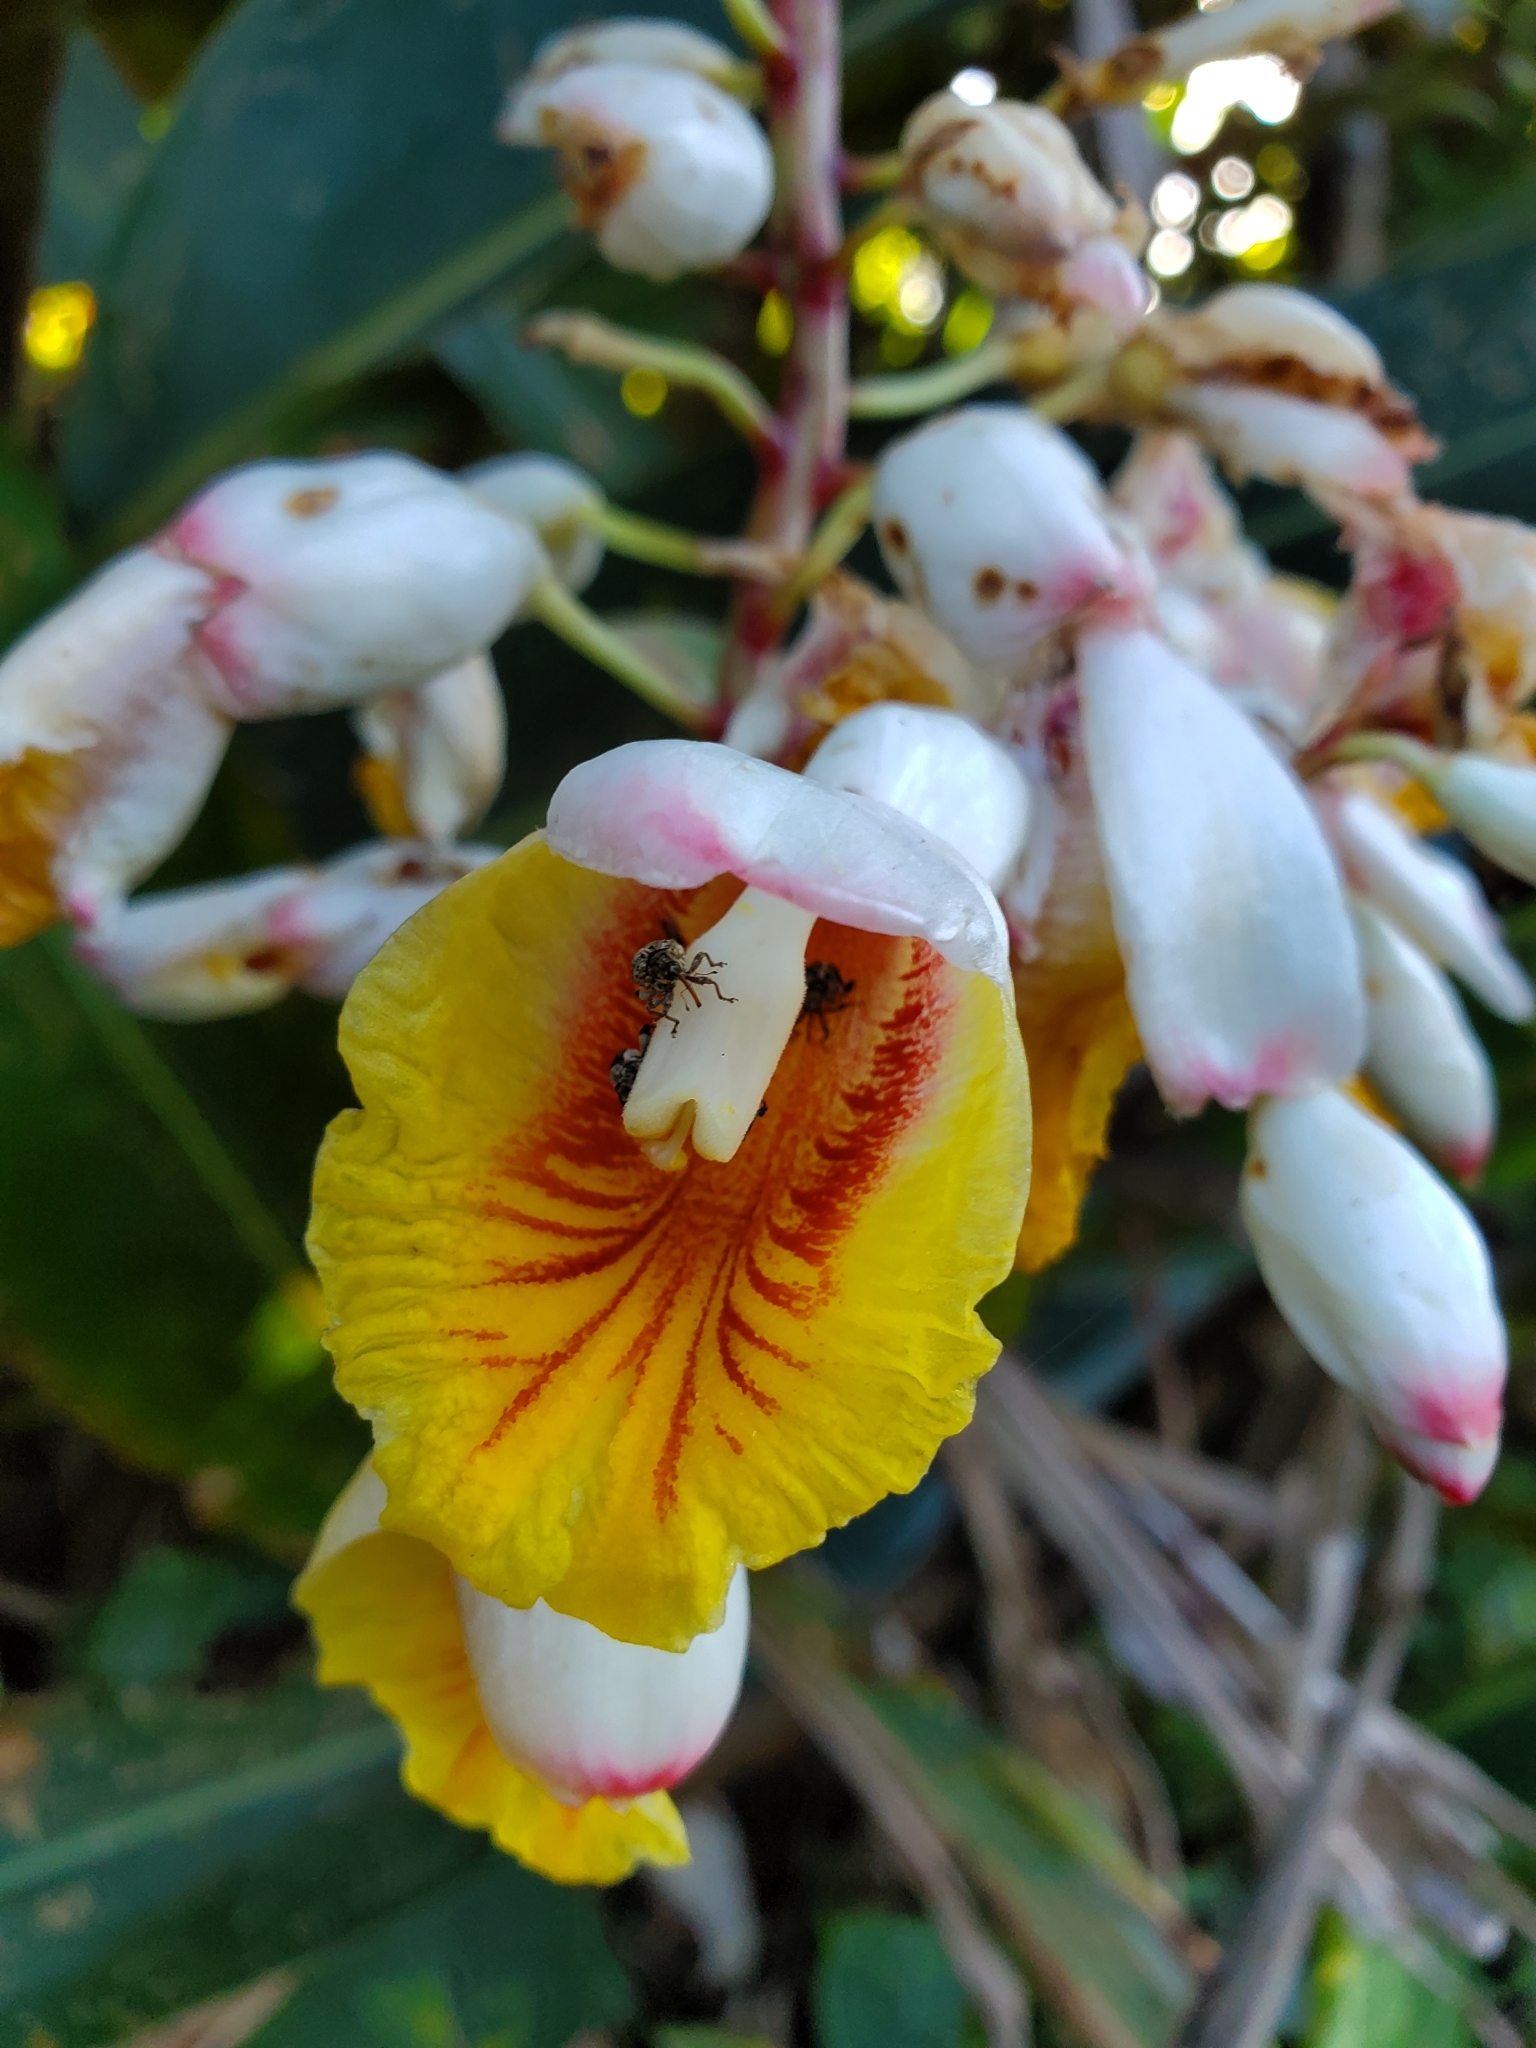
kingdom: Plantae
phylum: Tracheophyta
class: Liliopsida
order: Zingiberales
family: Zingiberaceae
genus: Alpinia
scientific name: Alpinia zerumbet
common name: Shellplant
